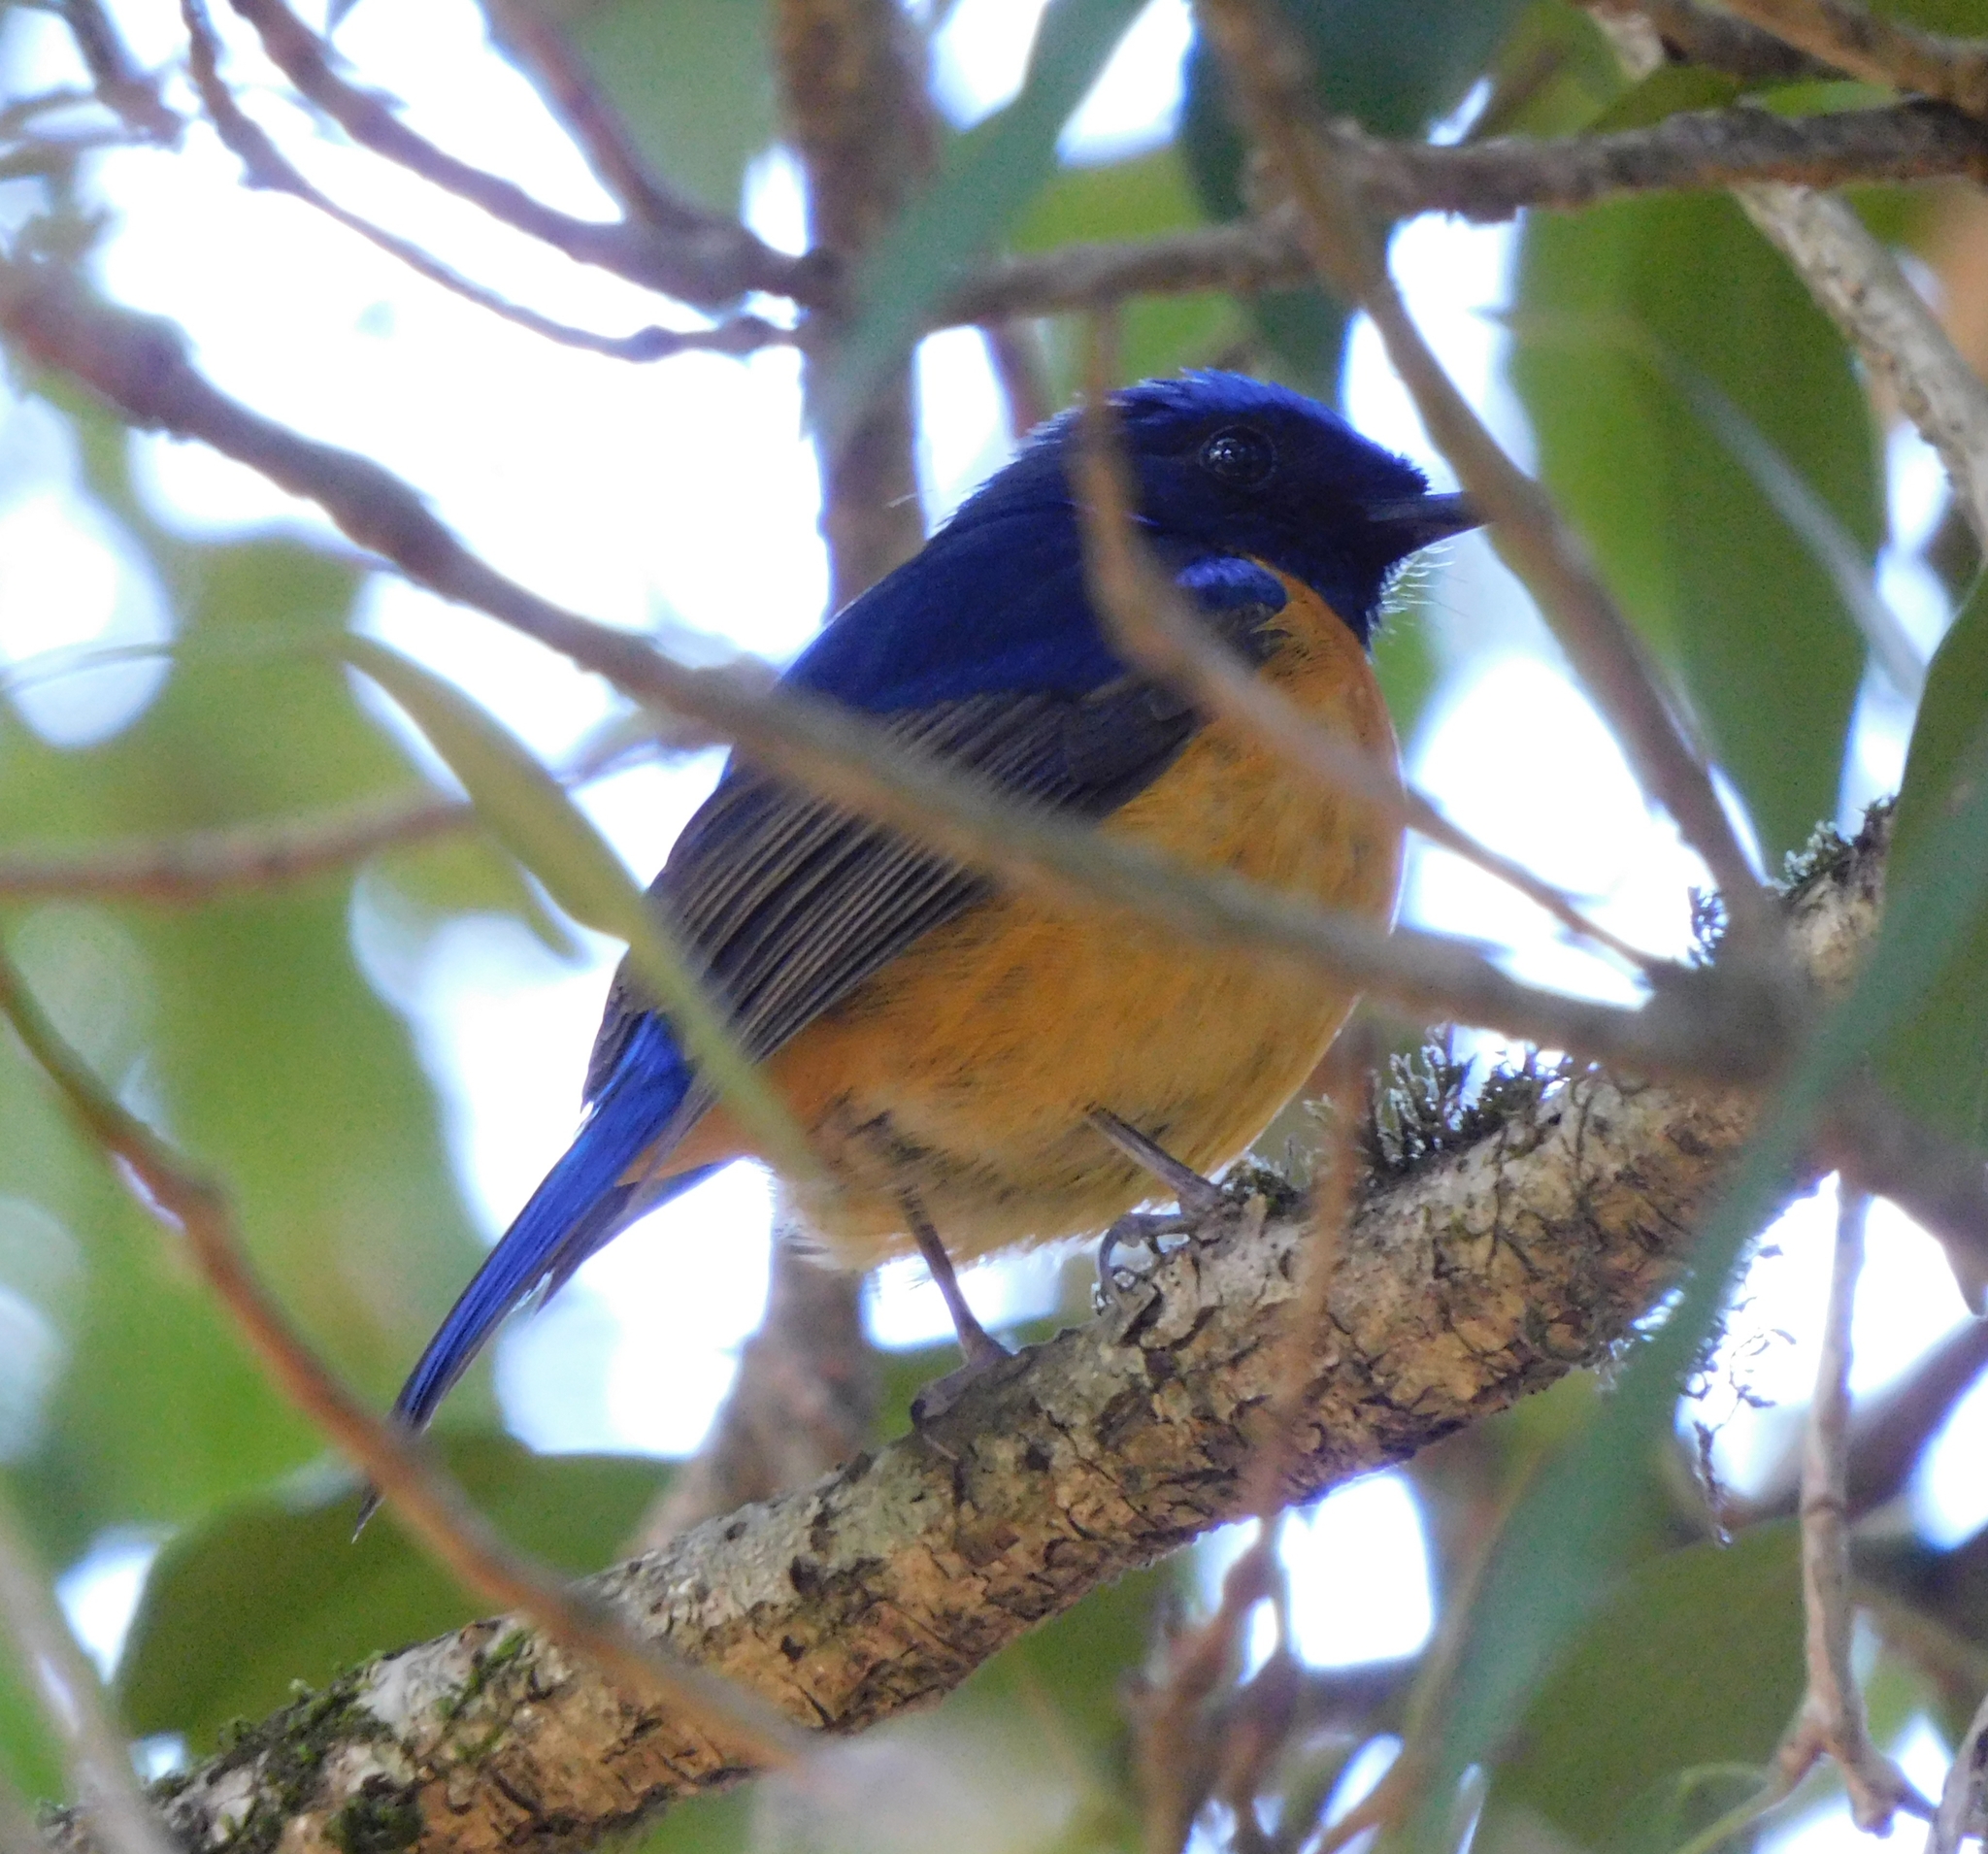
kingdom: Animalia
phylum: Chordata
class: Aves
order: Passeriformes
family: Muscicapidae
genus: Niltava
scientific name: Niltava sundara
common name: Rufous-bellied niltava
